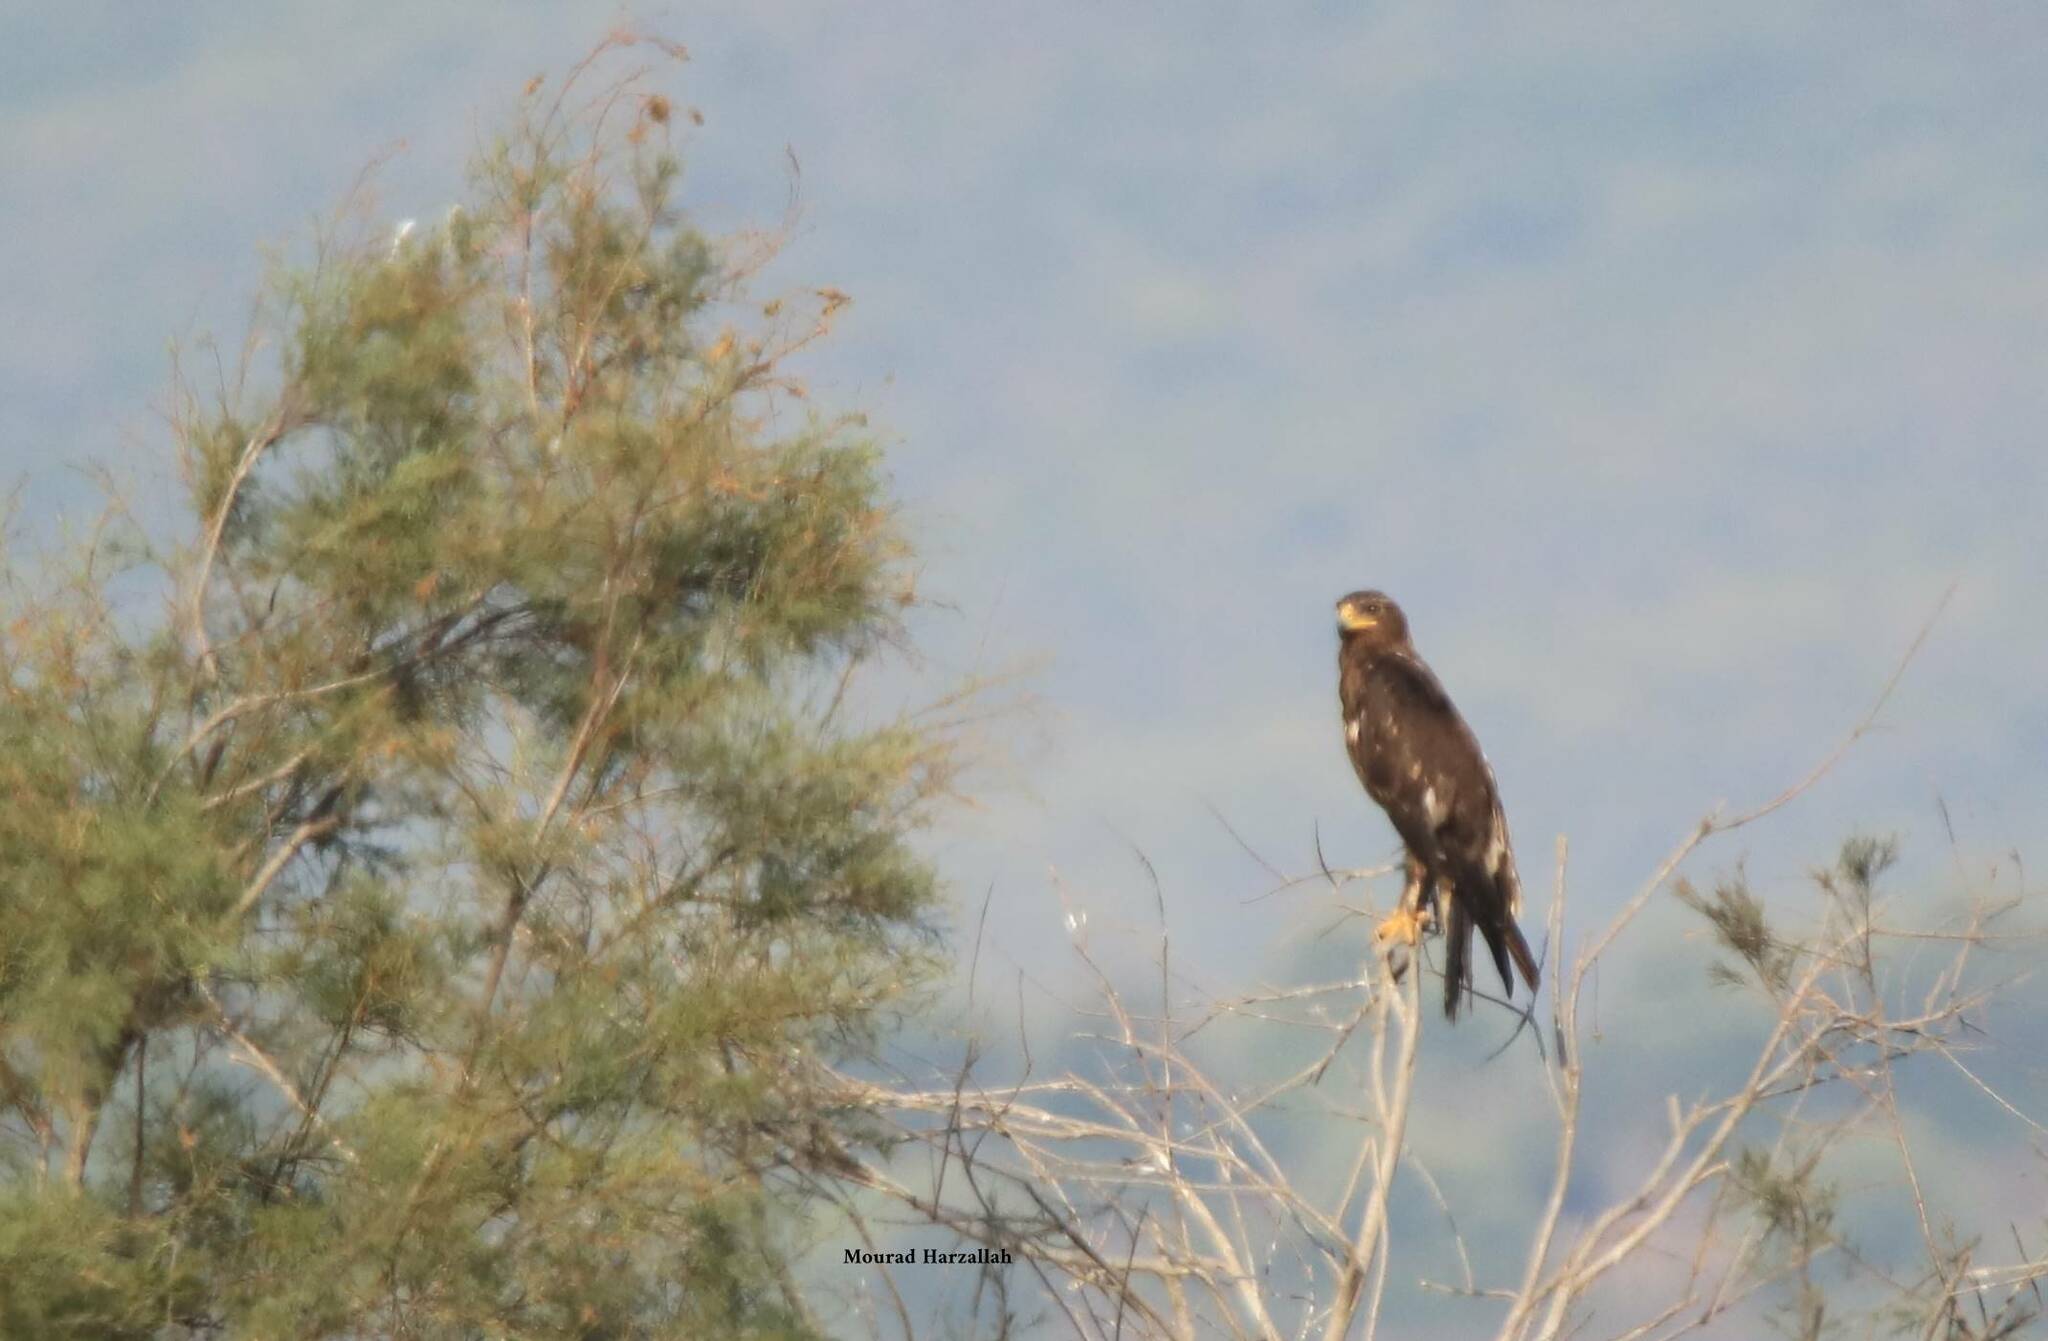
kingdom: Animalia
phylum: Chordata
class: Aves
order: Accipitriformes
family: Accipitridae
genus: Aquila
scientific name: Aquila clanga
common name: Greater spotted eagle
